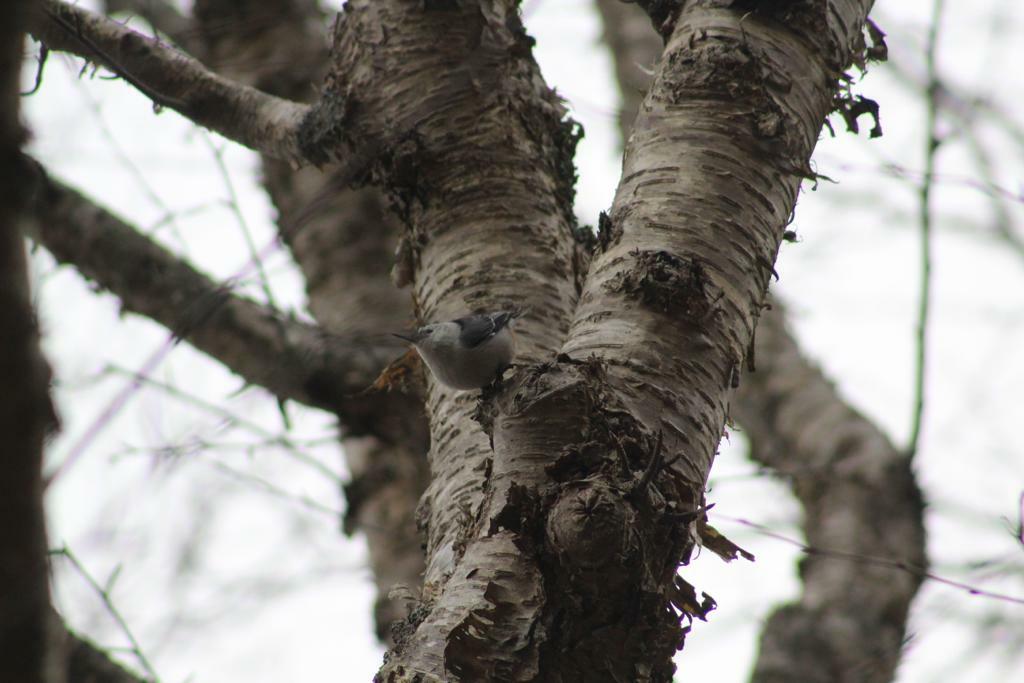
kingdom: Animalia
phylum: Chordata
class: Aves
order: Passeriformes
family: Sittidae
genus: Sitta
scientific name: Sitta carolinensis
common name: White-breasted nuthatch
